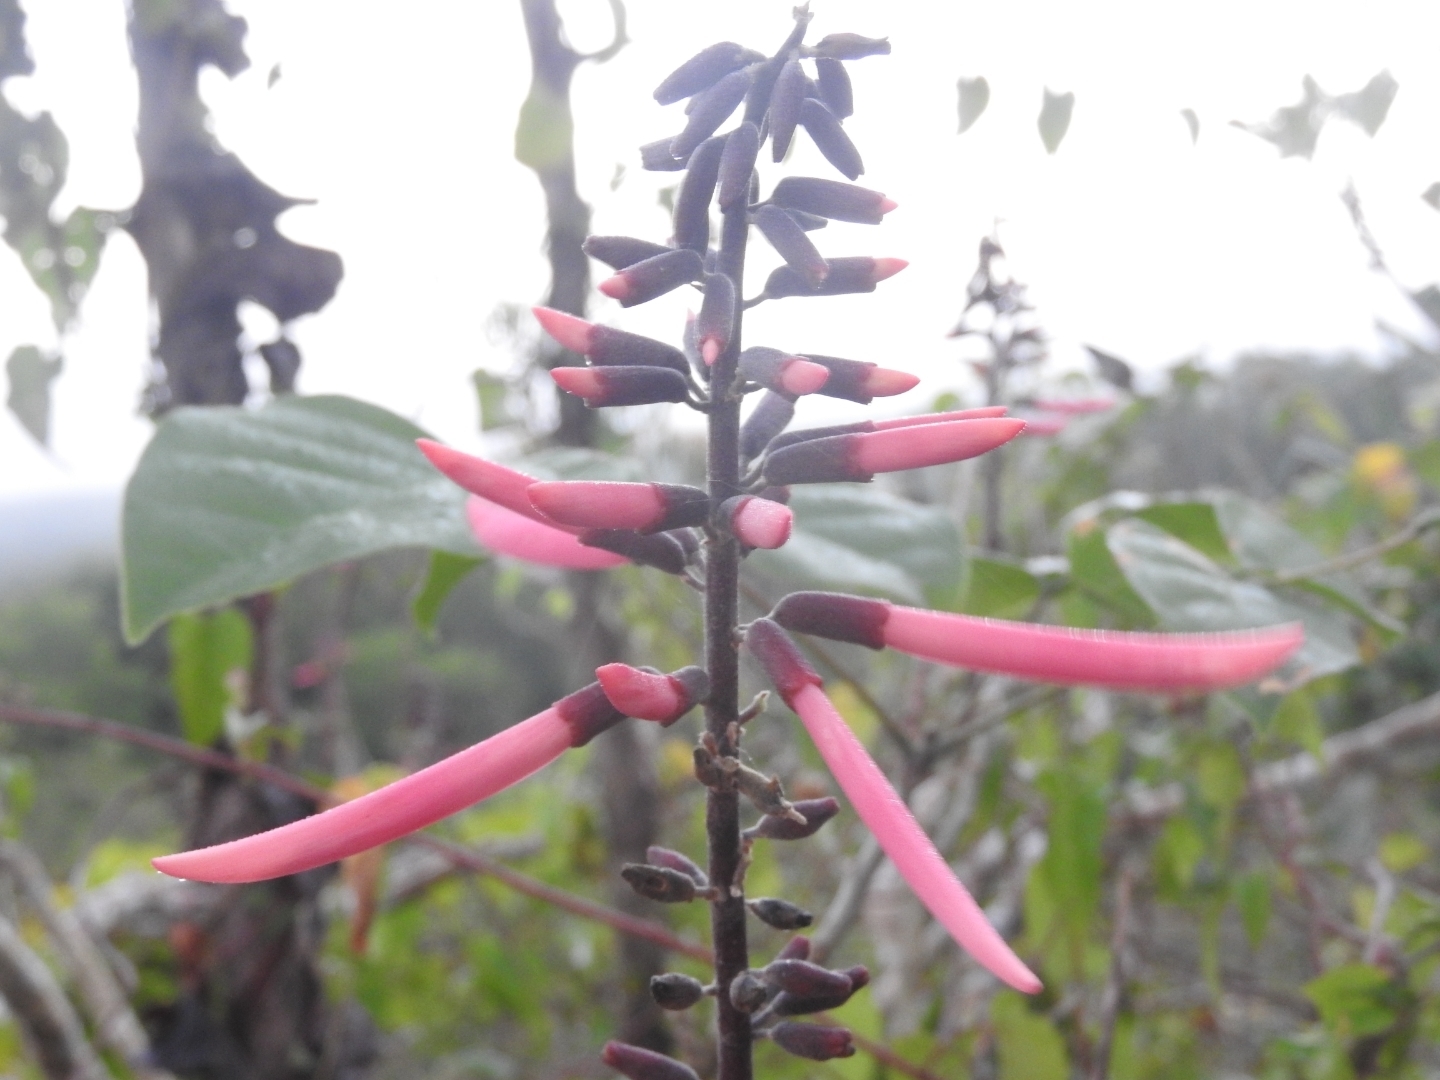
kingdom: Plantae
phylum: Tracheophyta
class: Magnoliopsida
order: Fabales
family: Fabaceae
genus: Erythrina
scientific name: Erythrina standleyana
